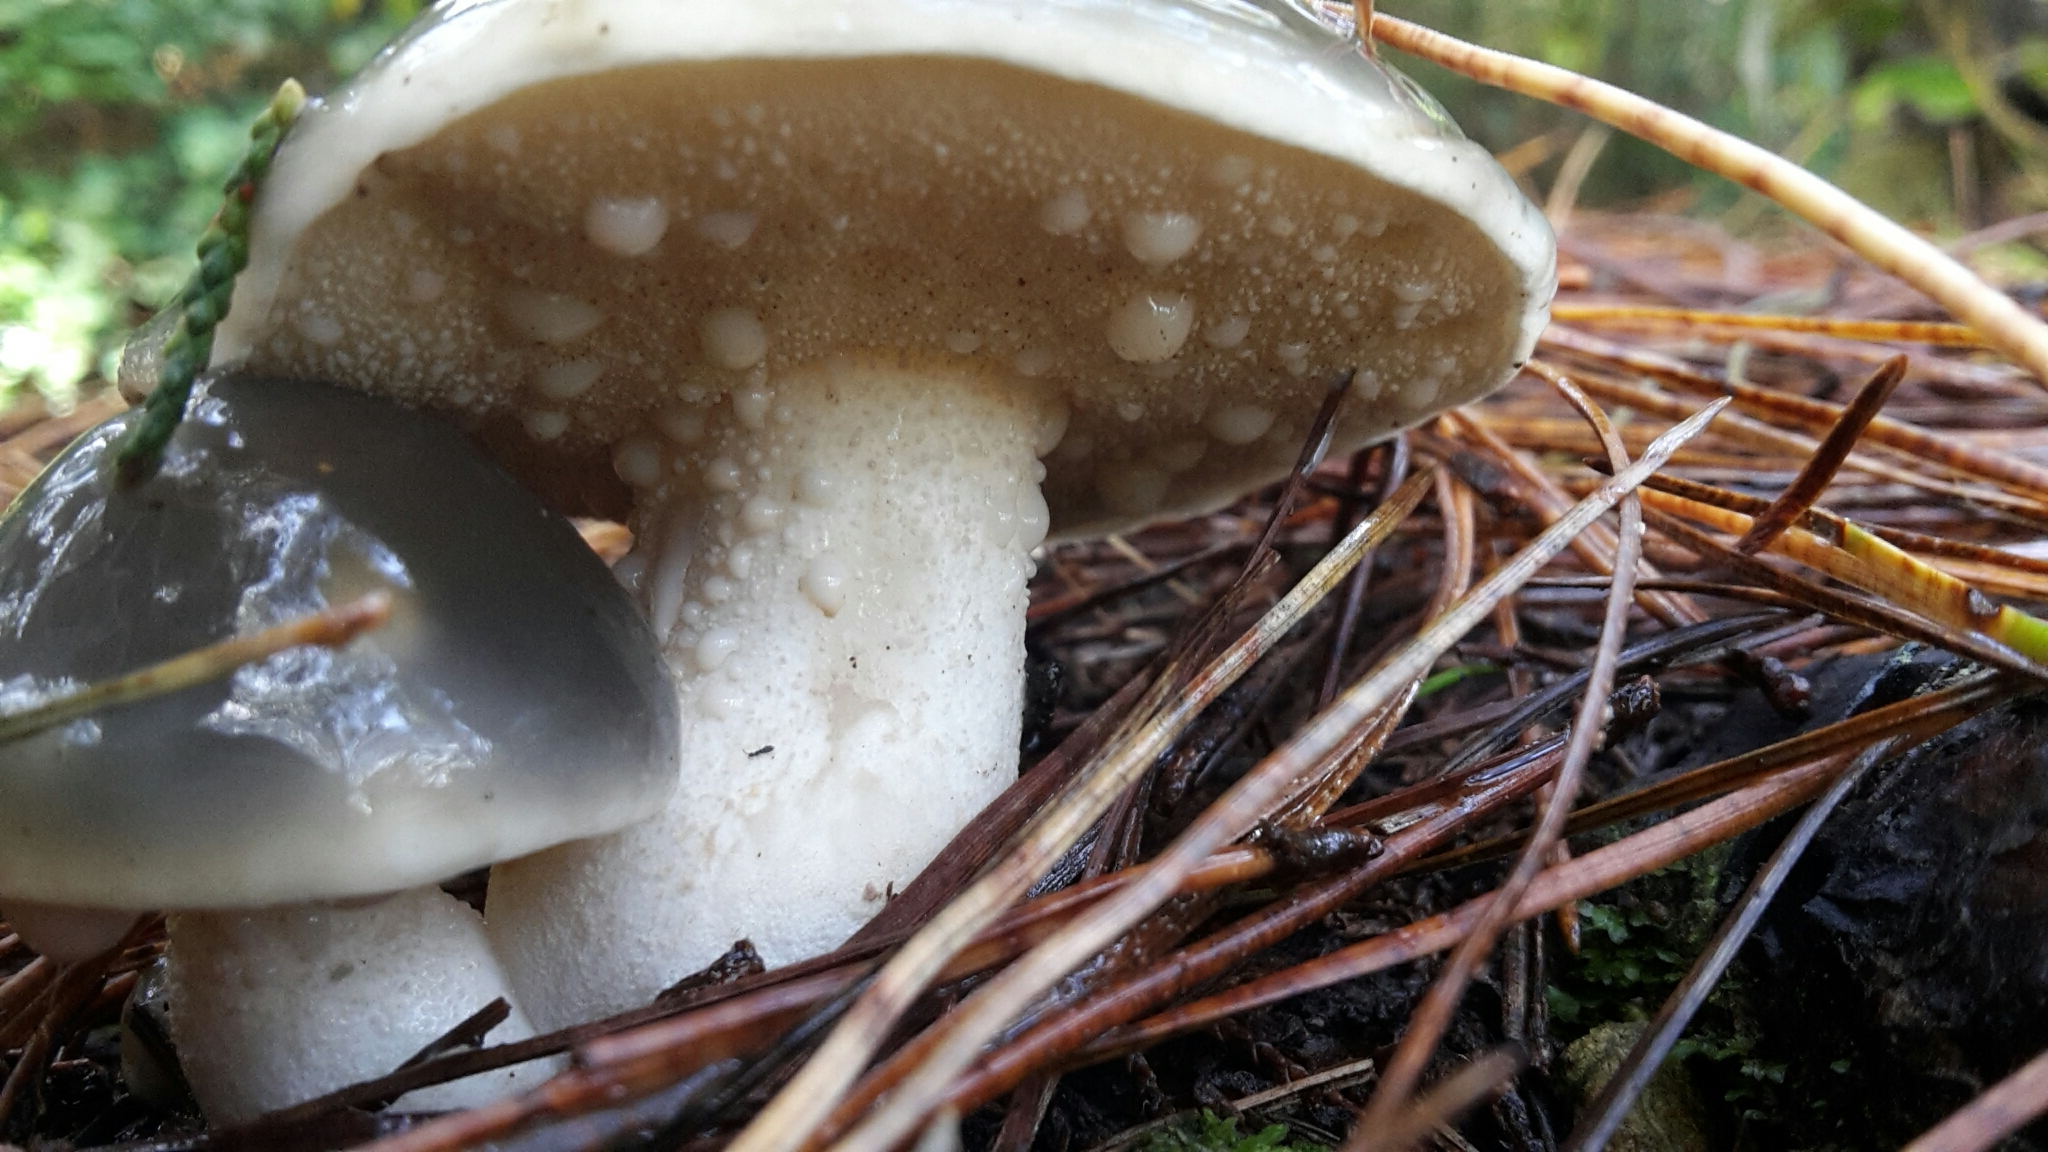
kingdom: Fungi
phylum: Basidiomycota
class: Agaricomycetes
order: Boletales
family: Suillaceae
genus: Suillus
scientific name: Suillus pungens
